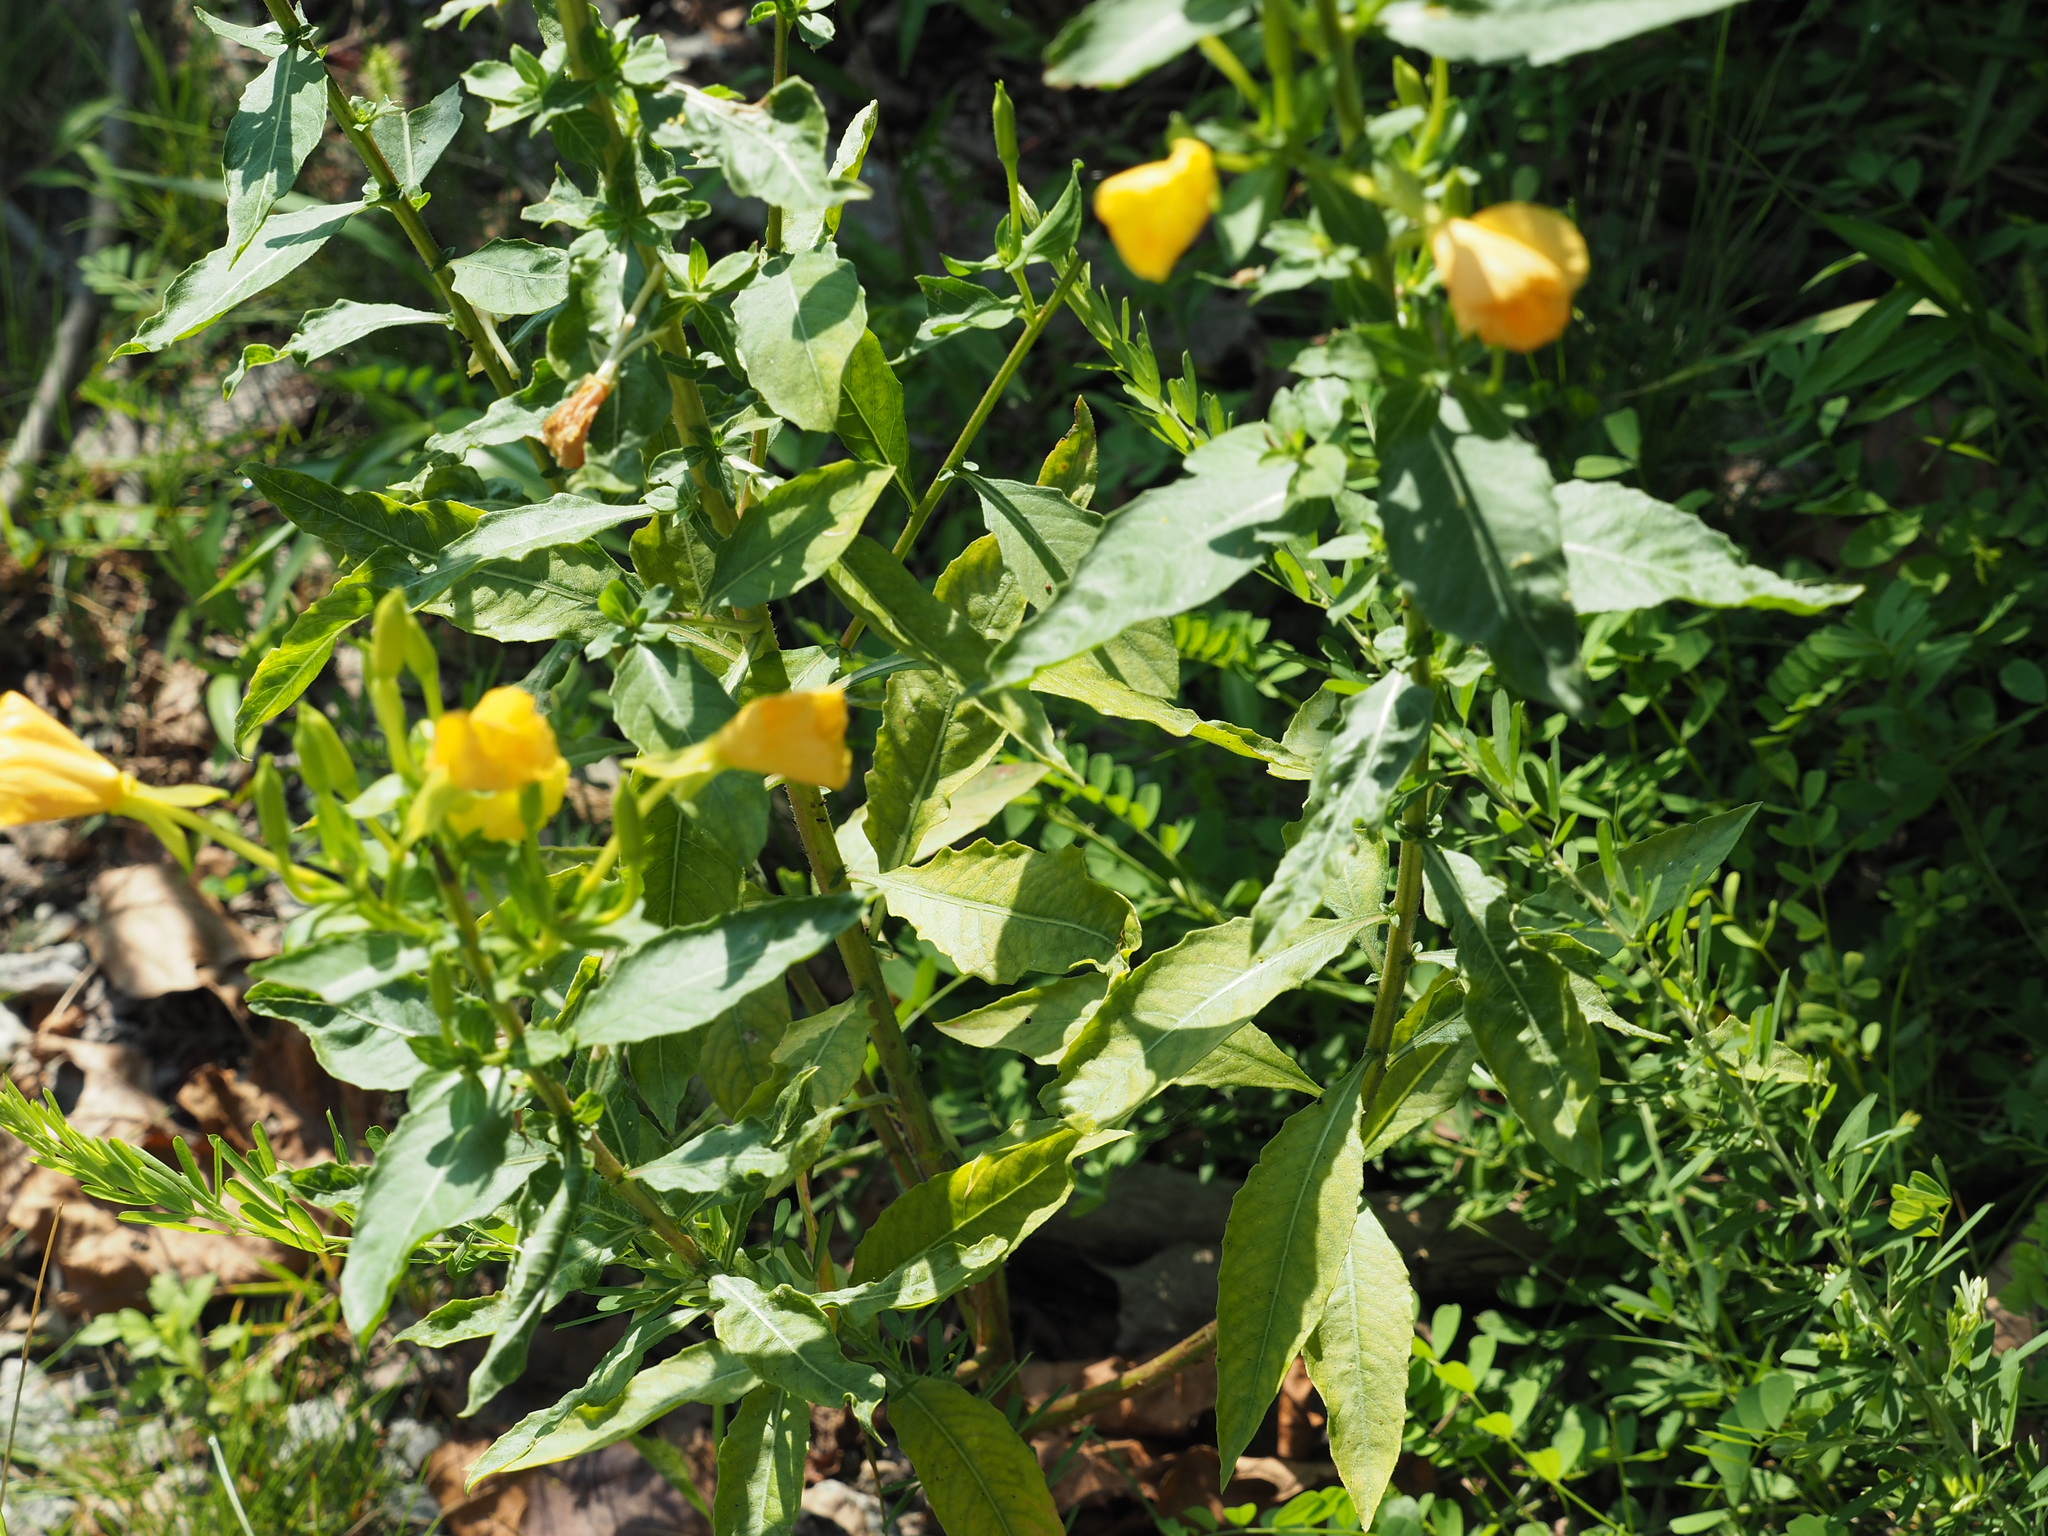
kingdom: Plantae
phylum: Tracheophyta
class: Magnoliopsida
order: Myrtales
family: Onagraceae
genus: Oenothera
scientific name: Oenothera biennis
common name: Common evening-primrose
